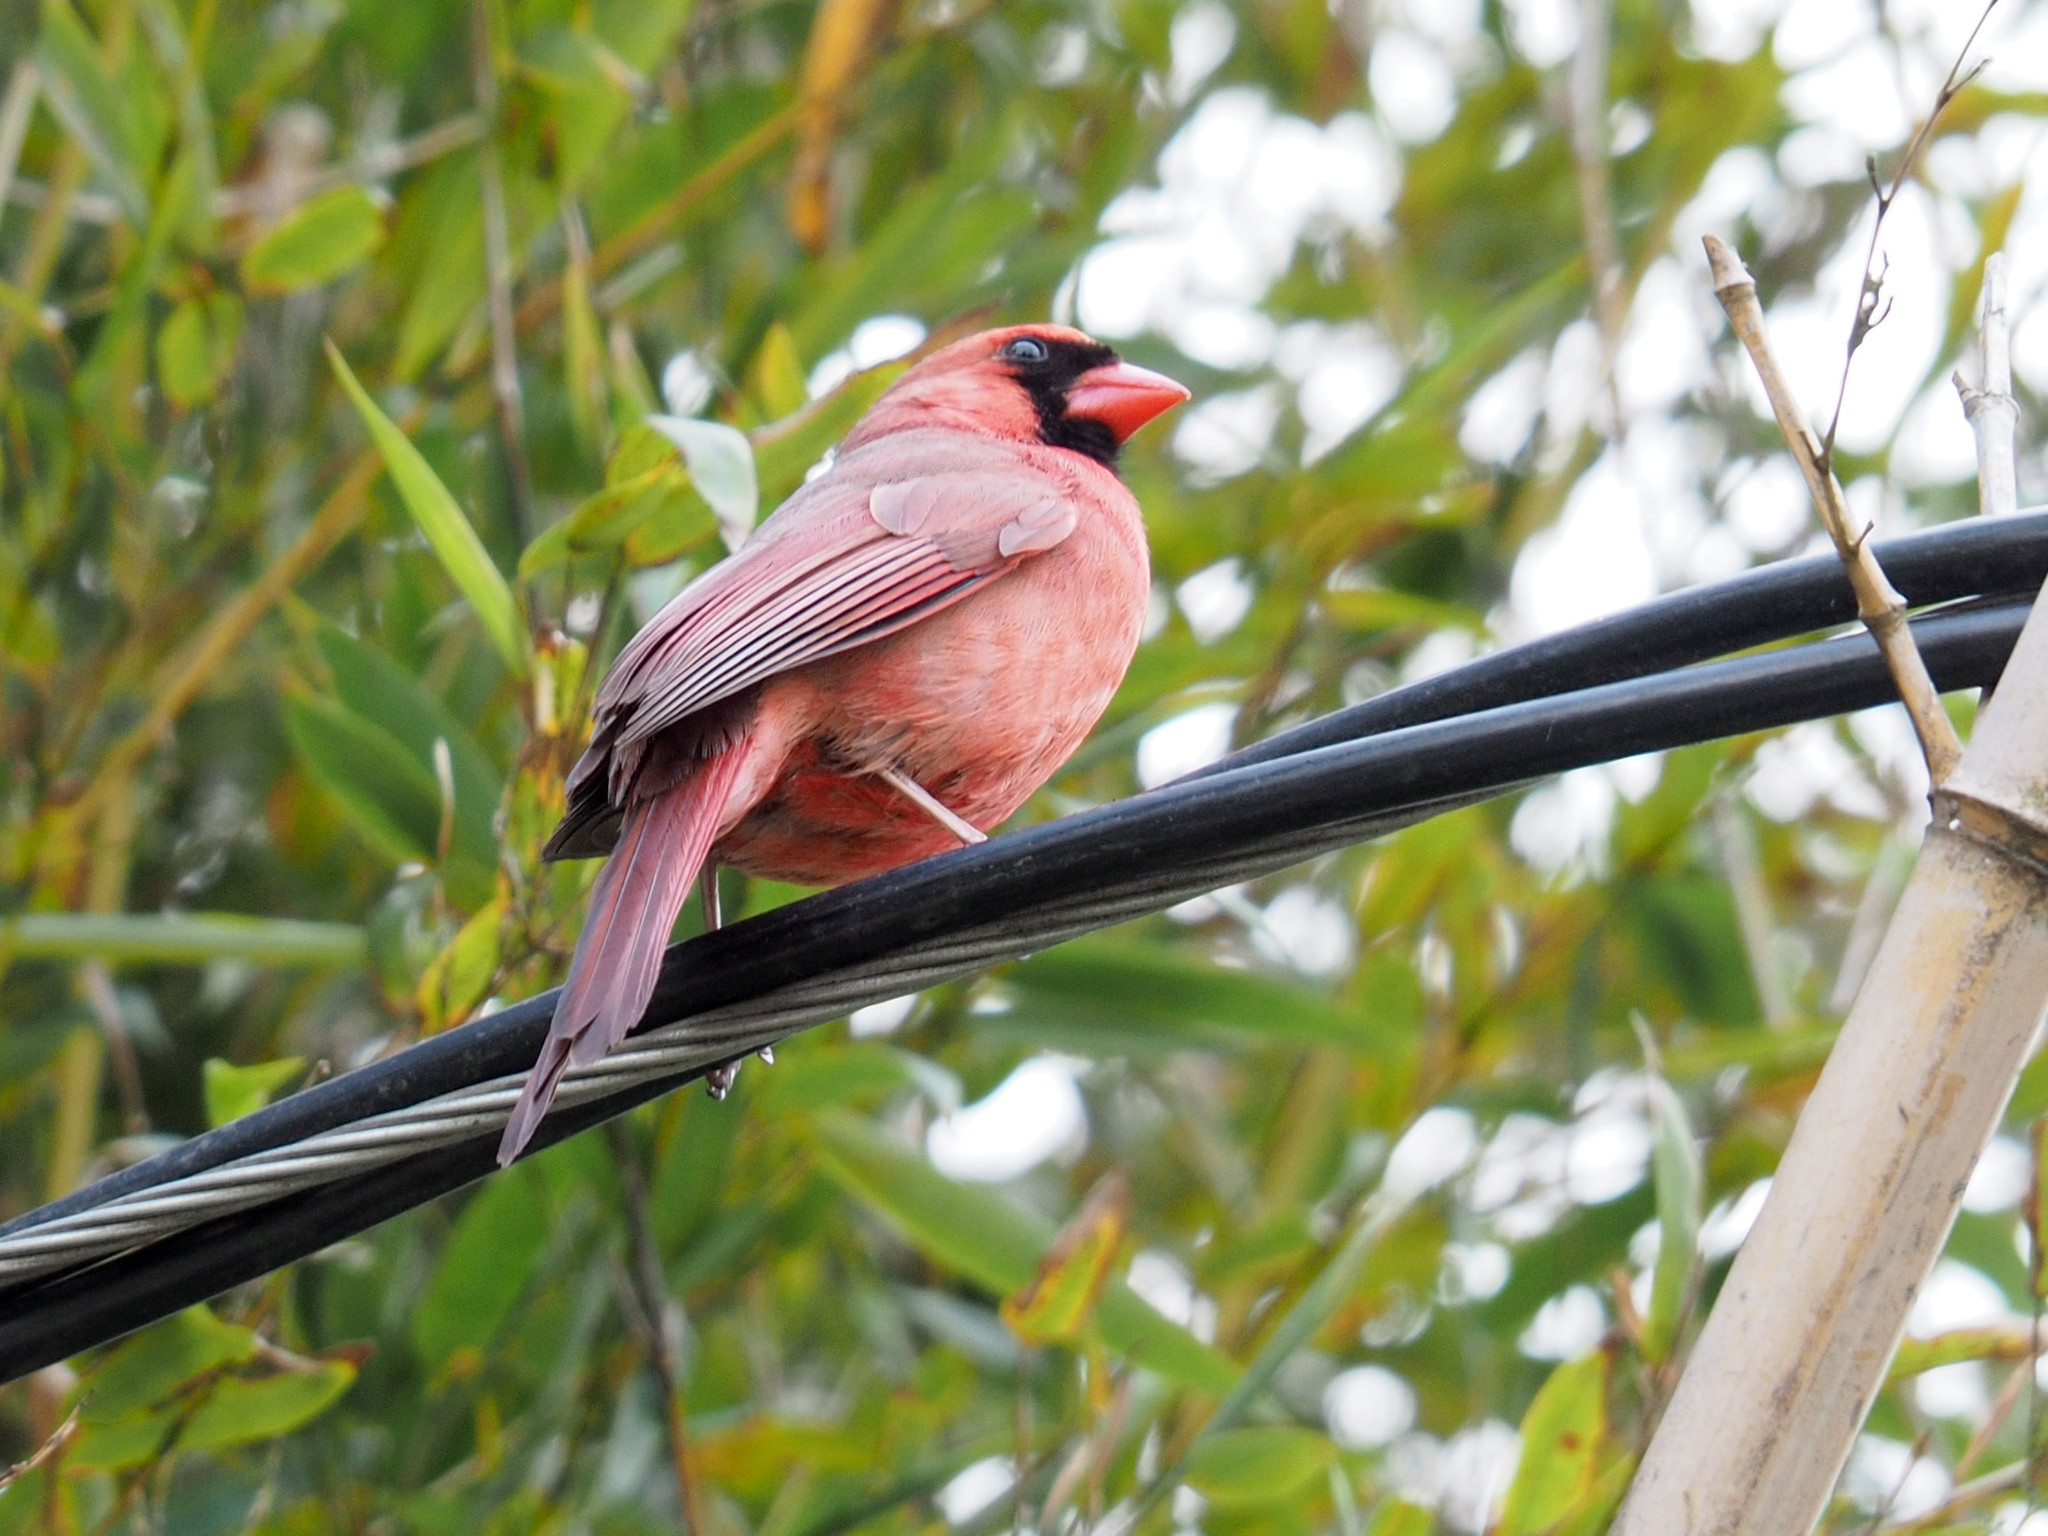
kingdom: Animalia
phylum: Chordata
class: Aves
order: Passeriformes
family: Cardinalidae
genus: Cardinalis
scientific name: Cardinalis cardinalis
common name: Northern cardinal
